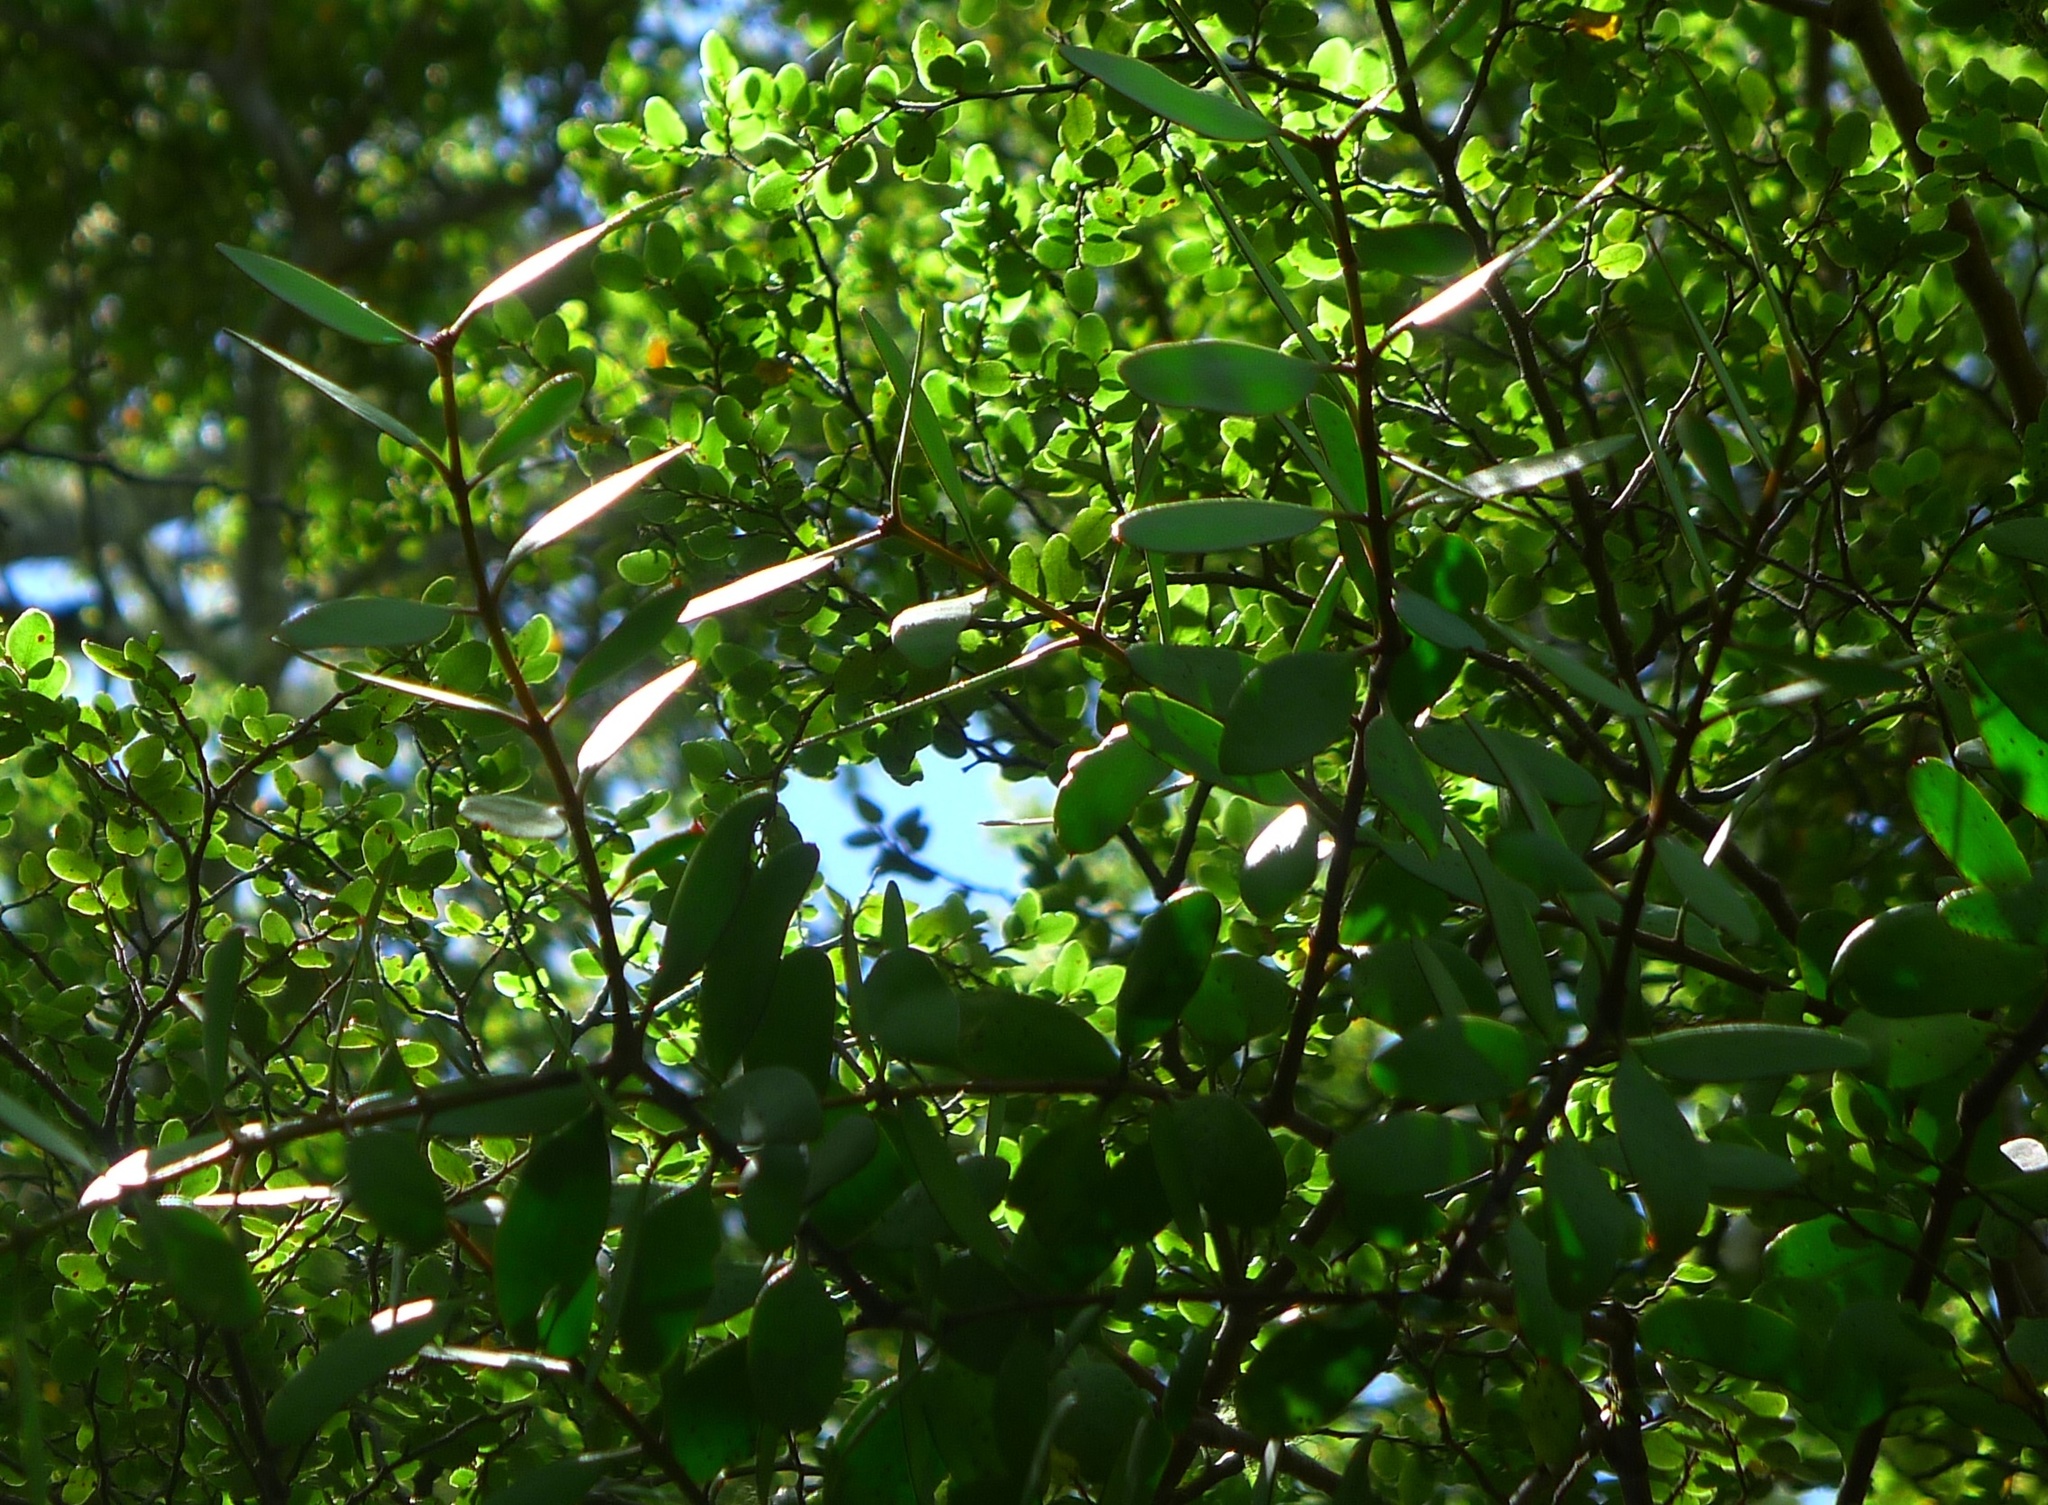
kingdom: Plantae
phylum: Tracheophyta
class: Magnoliopsida
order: Santalales
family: Loranthaceae
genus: Alepis
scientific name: Alepis flavida
